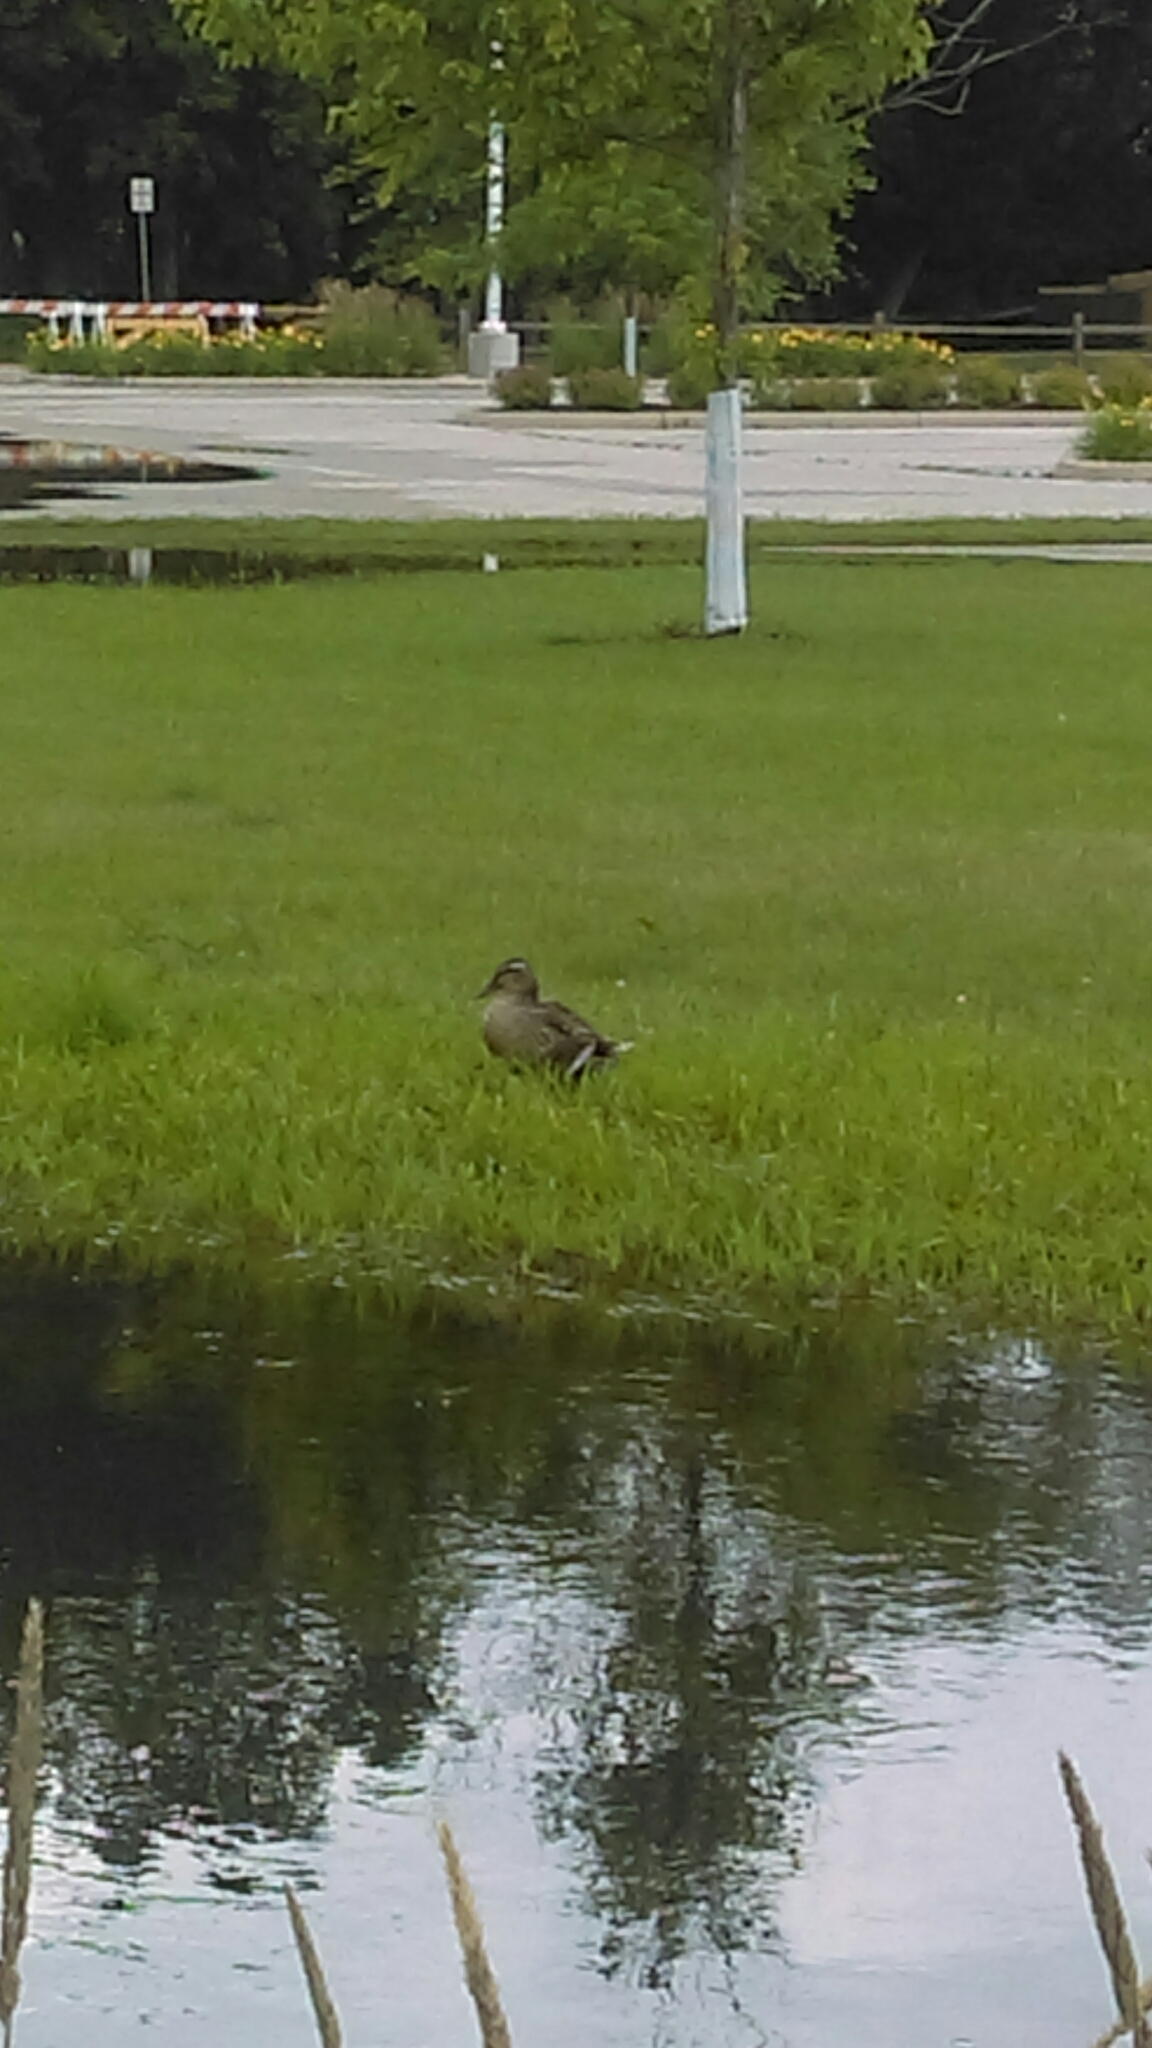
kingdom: Animalia
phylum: Chordata
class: Aves
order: Anseriformes
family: Anatidae
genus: Anas
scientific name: Anas platyrhynchos
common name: Mallard
